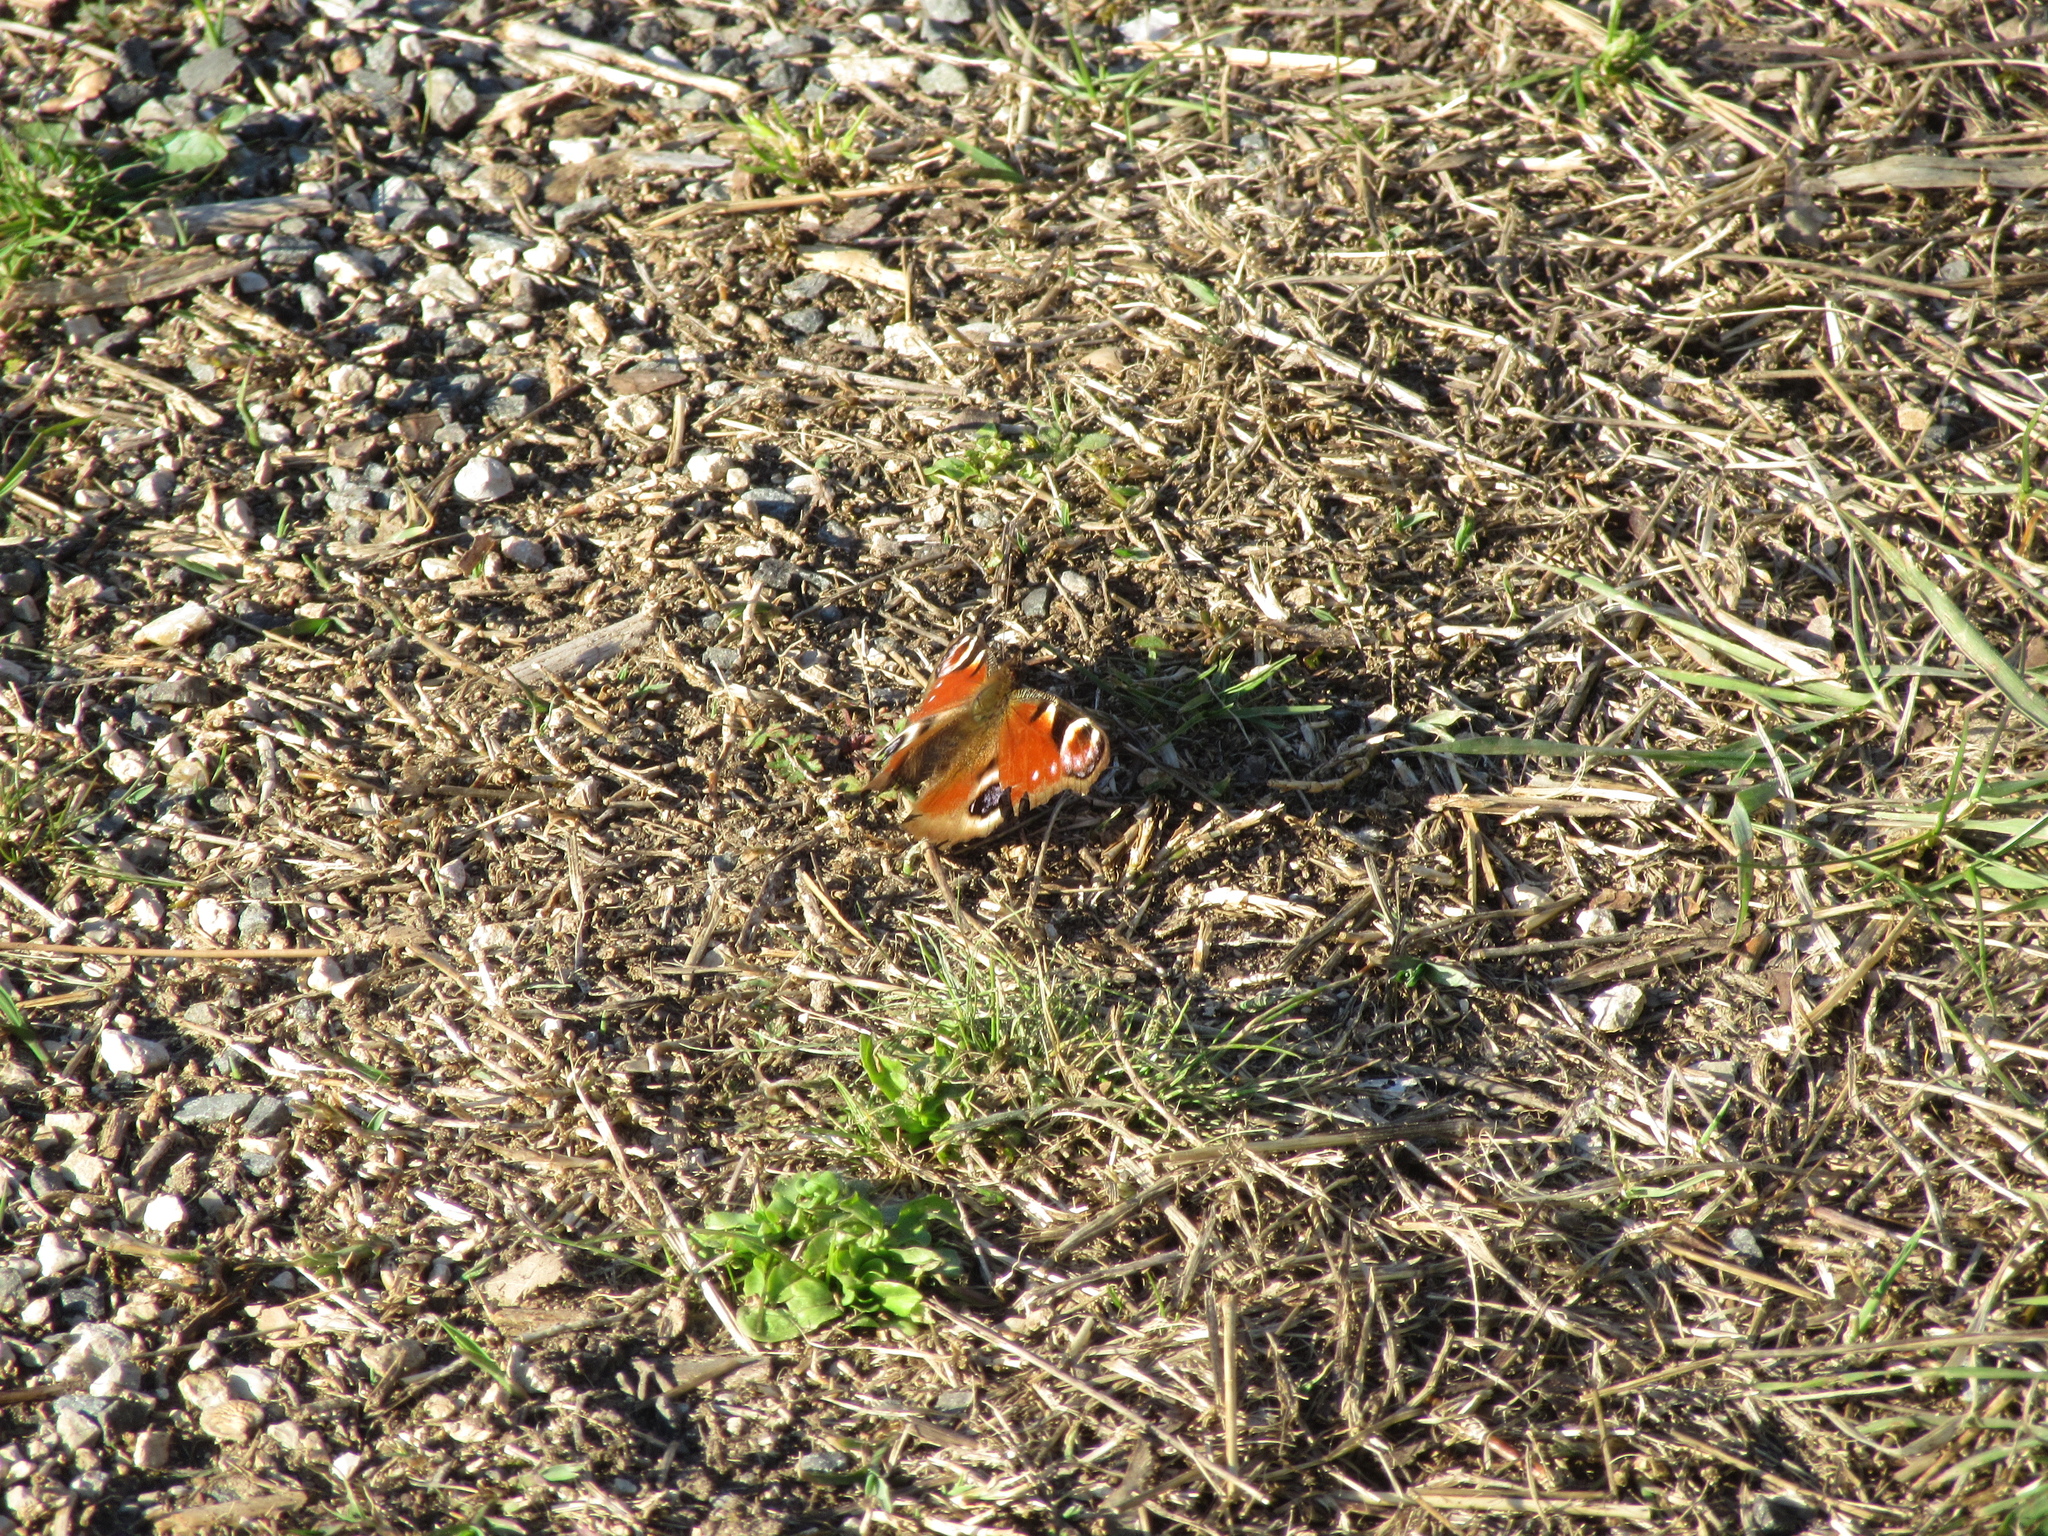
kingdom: Animalia
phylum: Arthropoda
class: Insecta
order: Lepidoptera
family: Nymphalidae
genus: Aglais
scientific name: Aglais io
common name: Peacock
